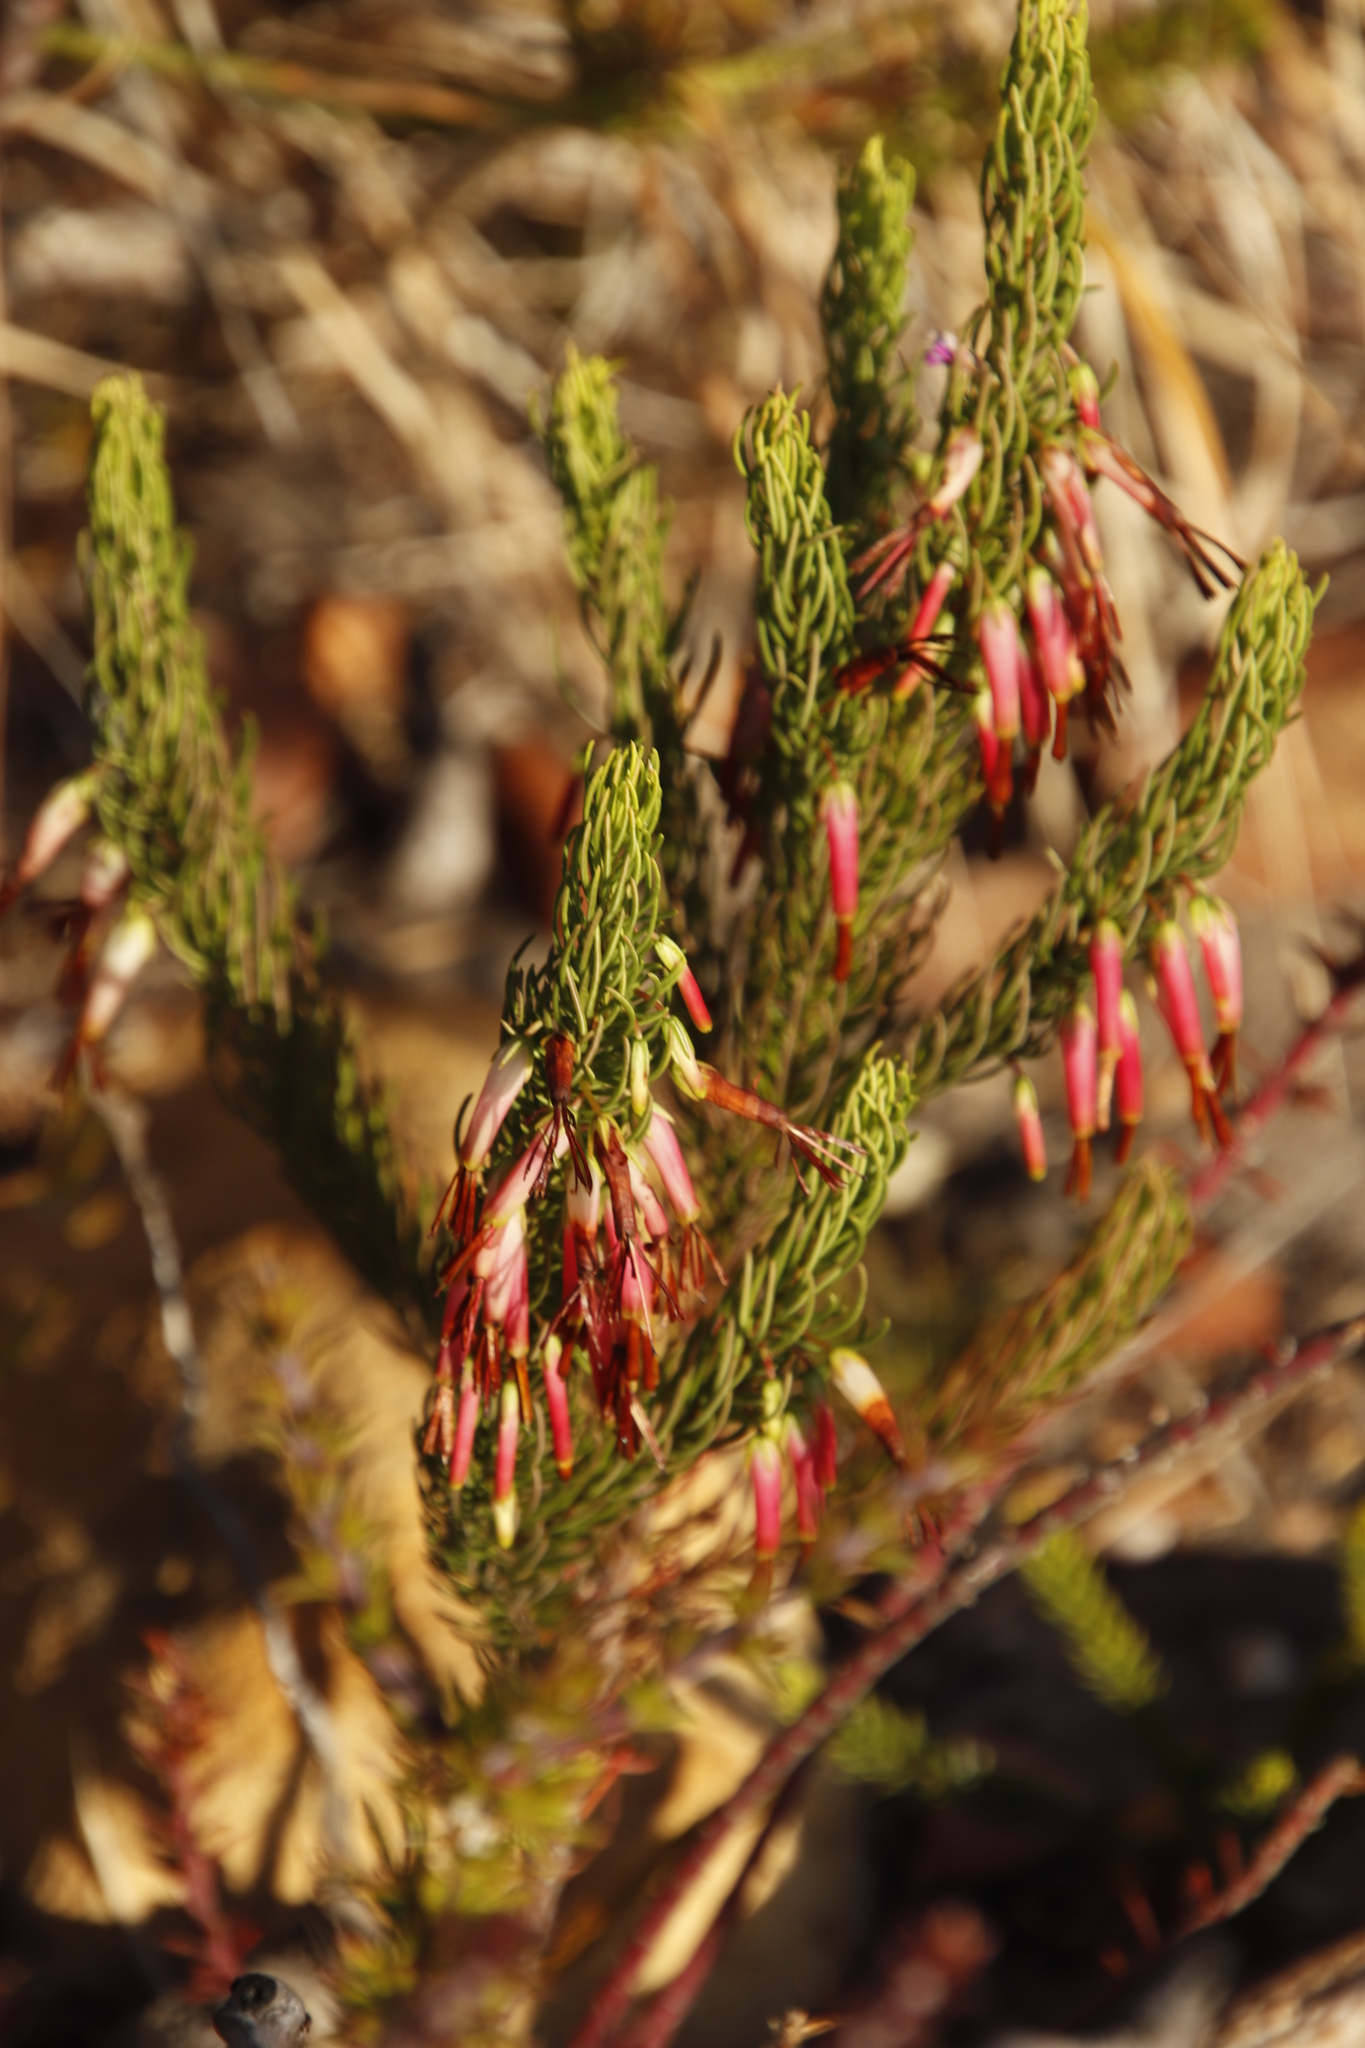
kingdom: Plantae
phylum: Tracheophyta
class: Magnoliopsida
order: Ericales
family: Ericaceae
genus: Erica
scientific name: Erica plukenetii
